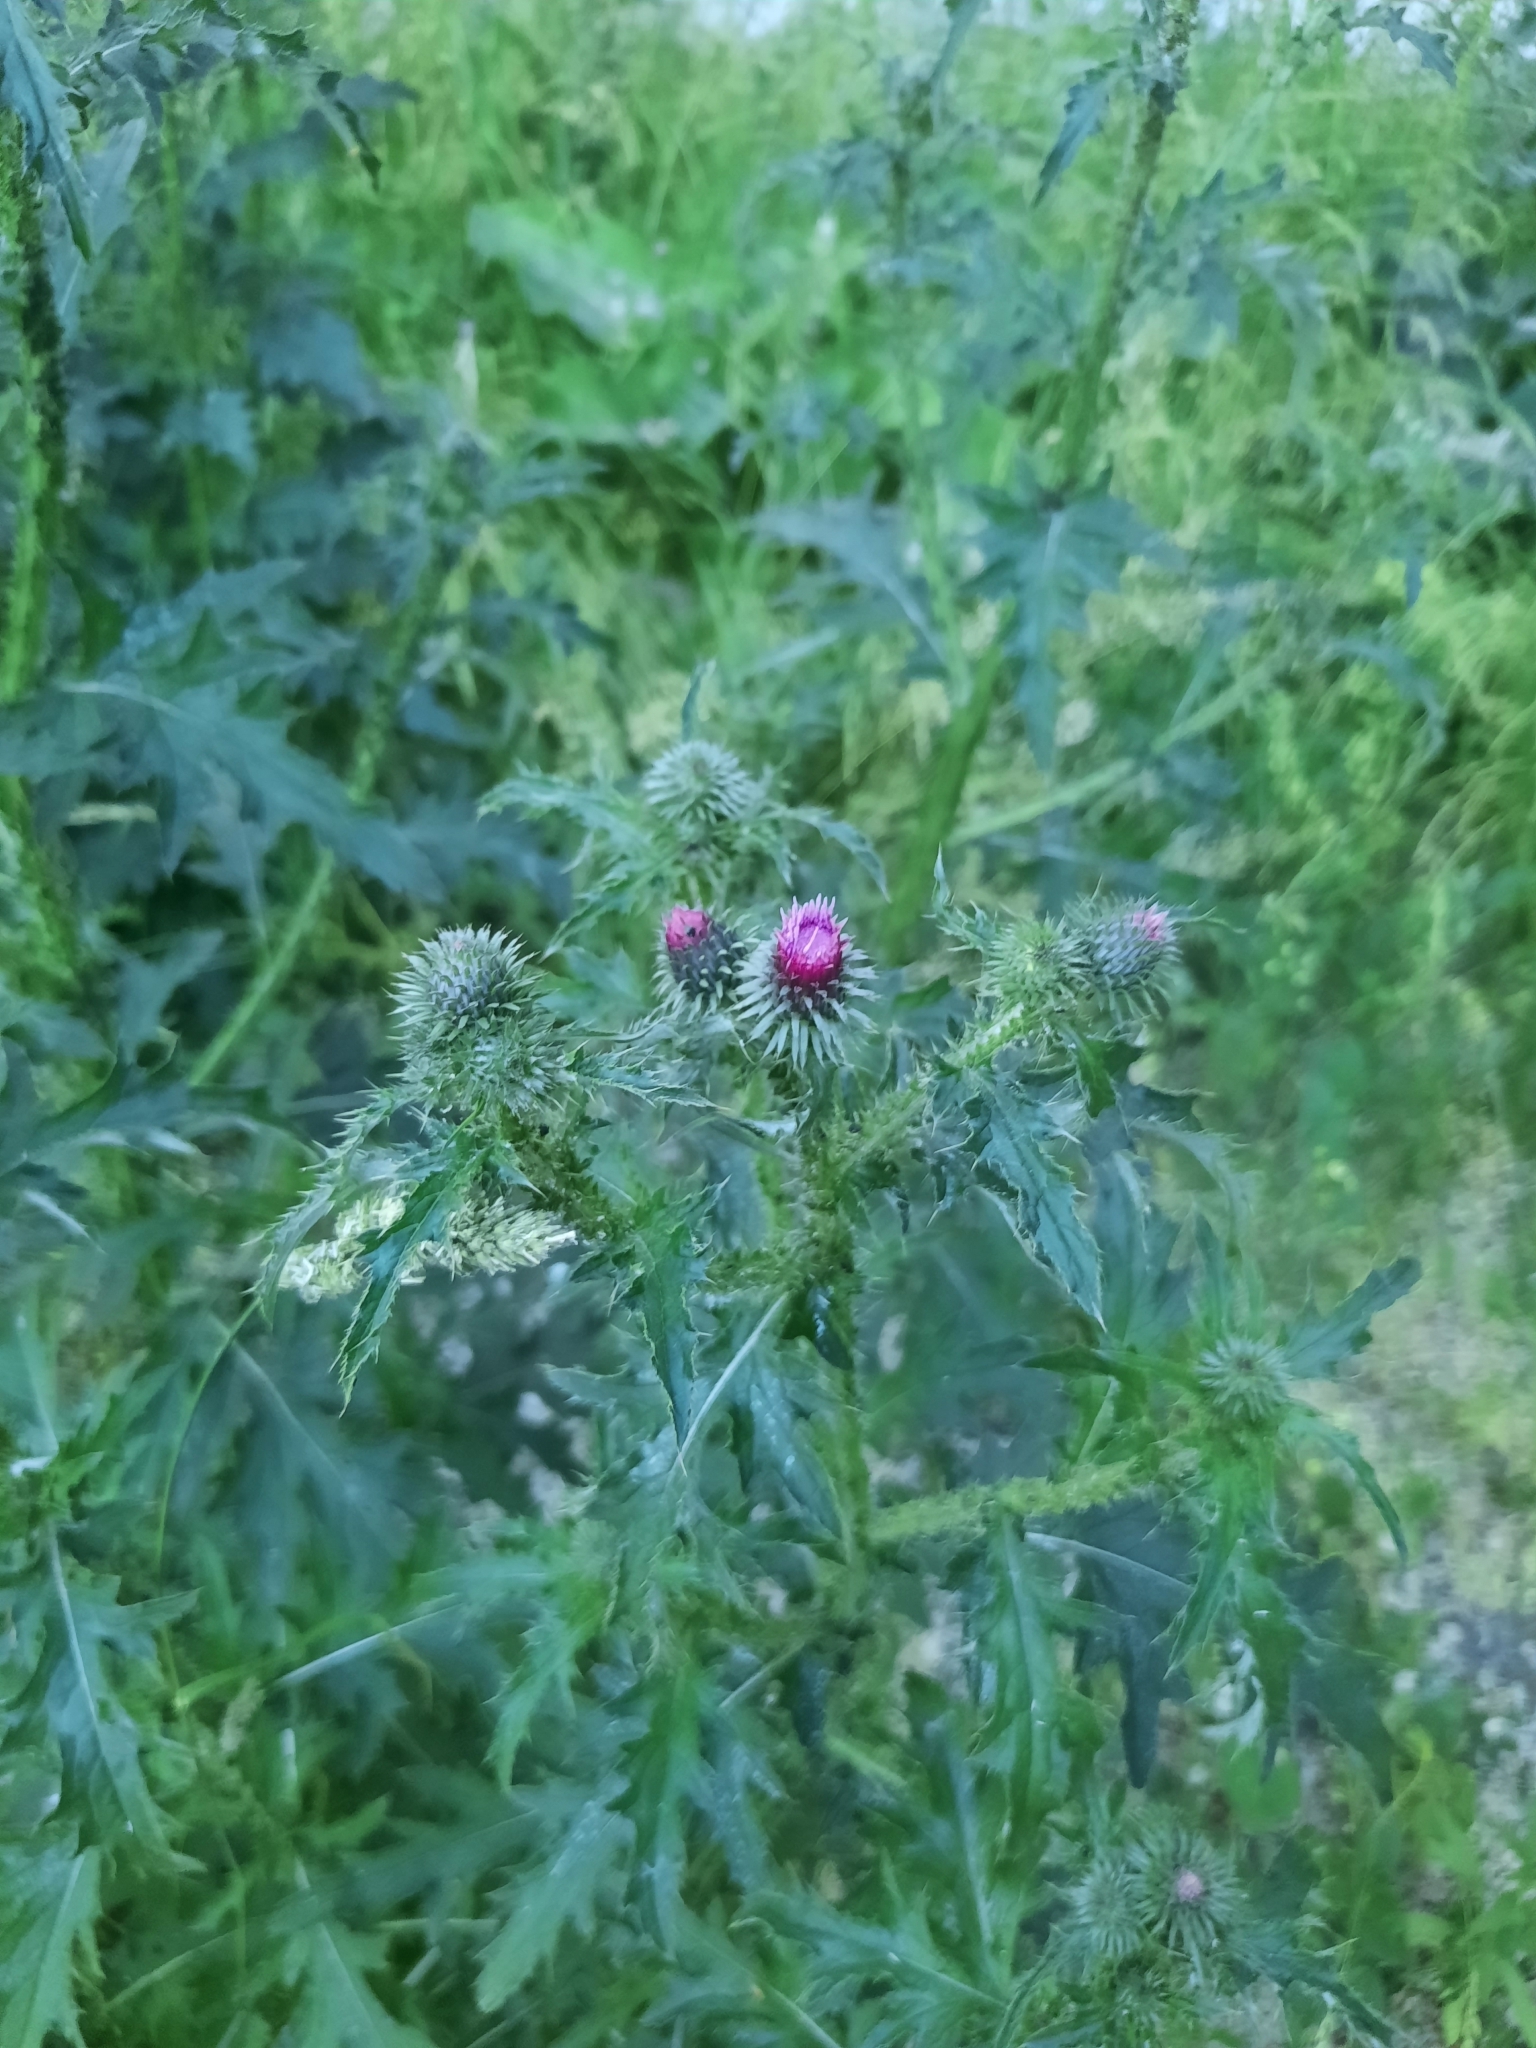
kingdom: Plantae
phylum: Tracheophyta
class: Magnoliopsida
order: Asterales
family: Asteraceae
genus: Carduus
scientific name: Carduus crispus
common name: Welted thistle
